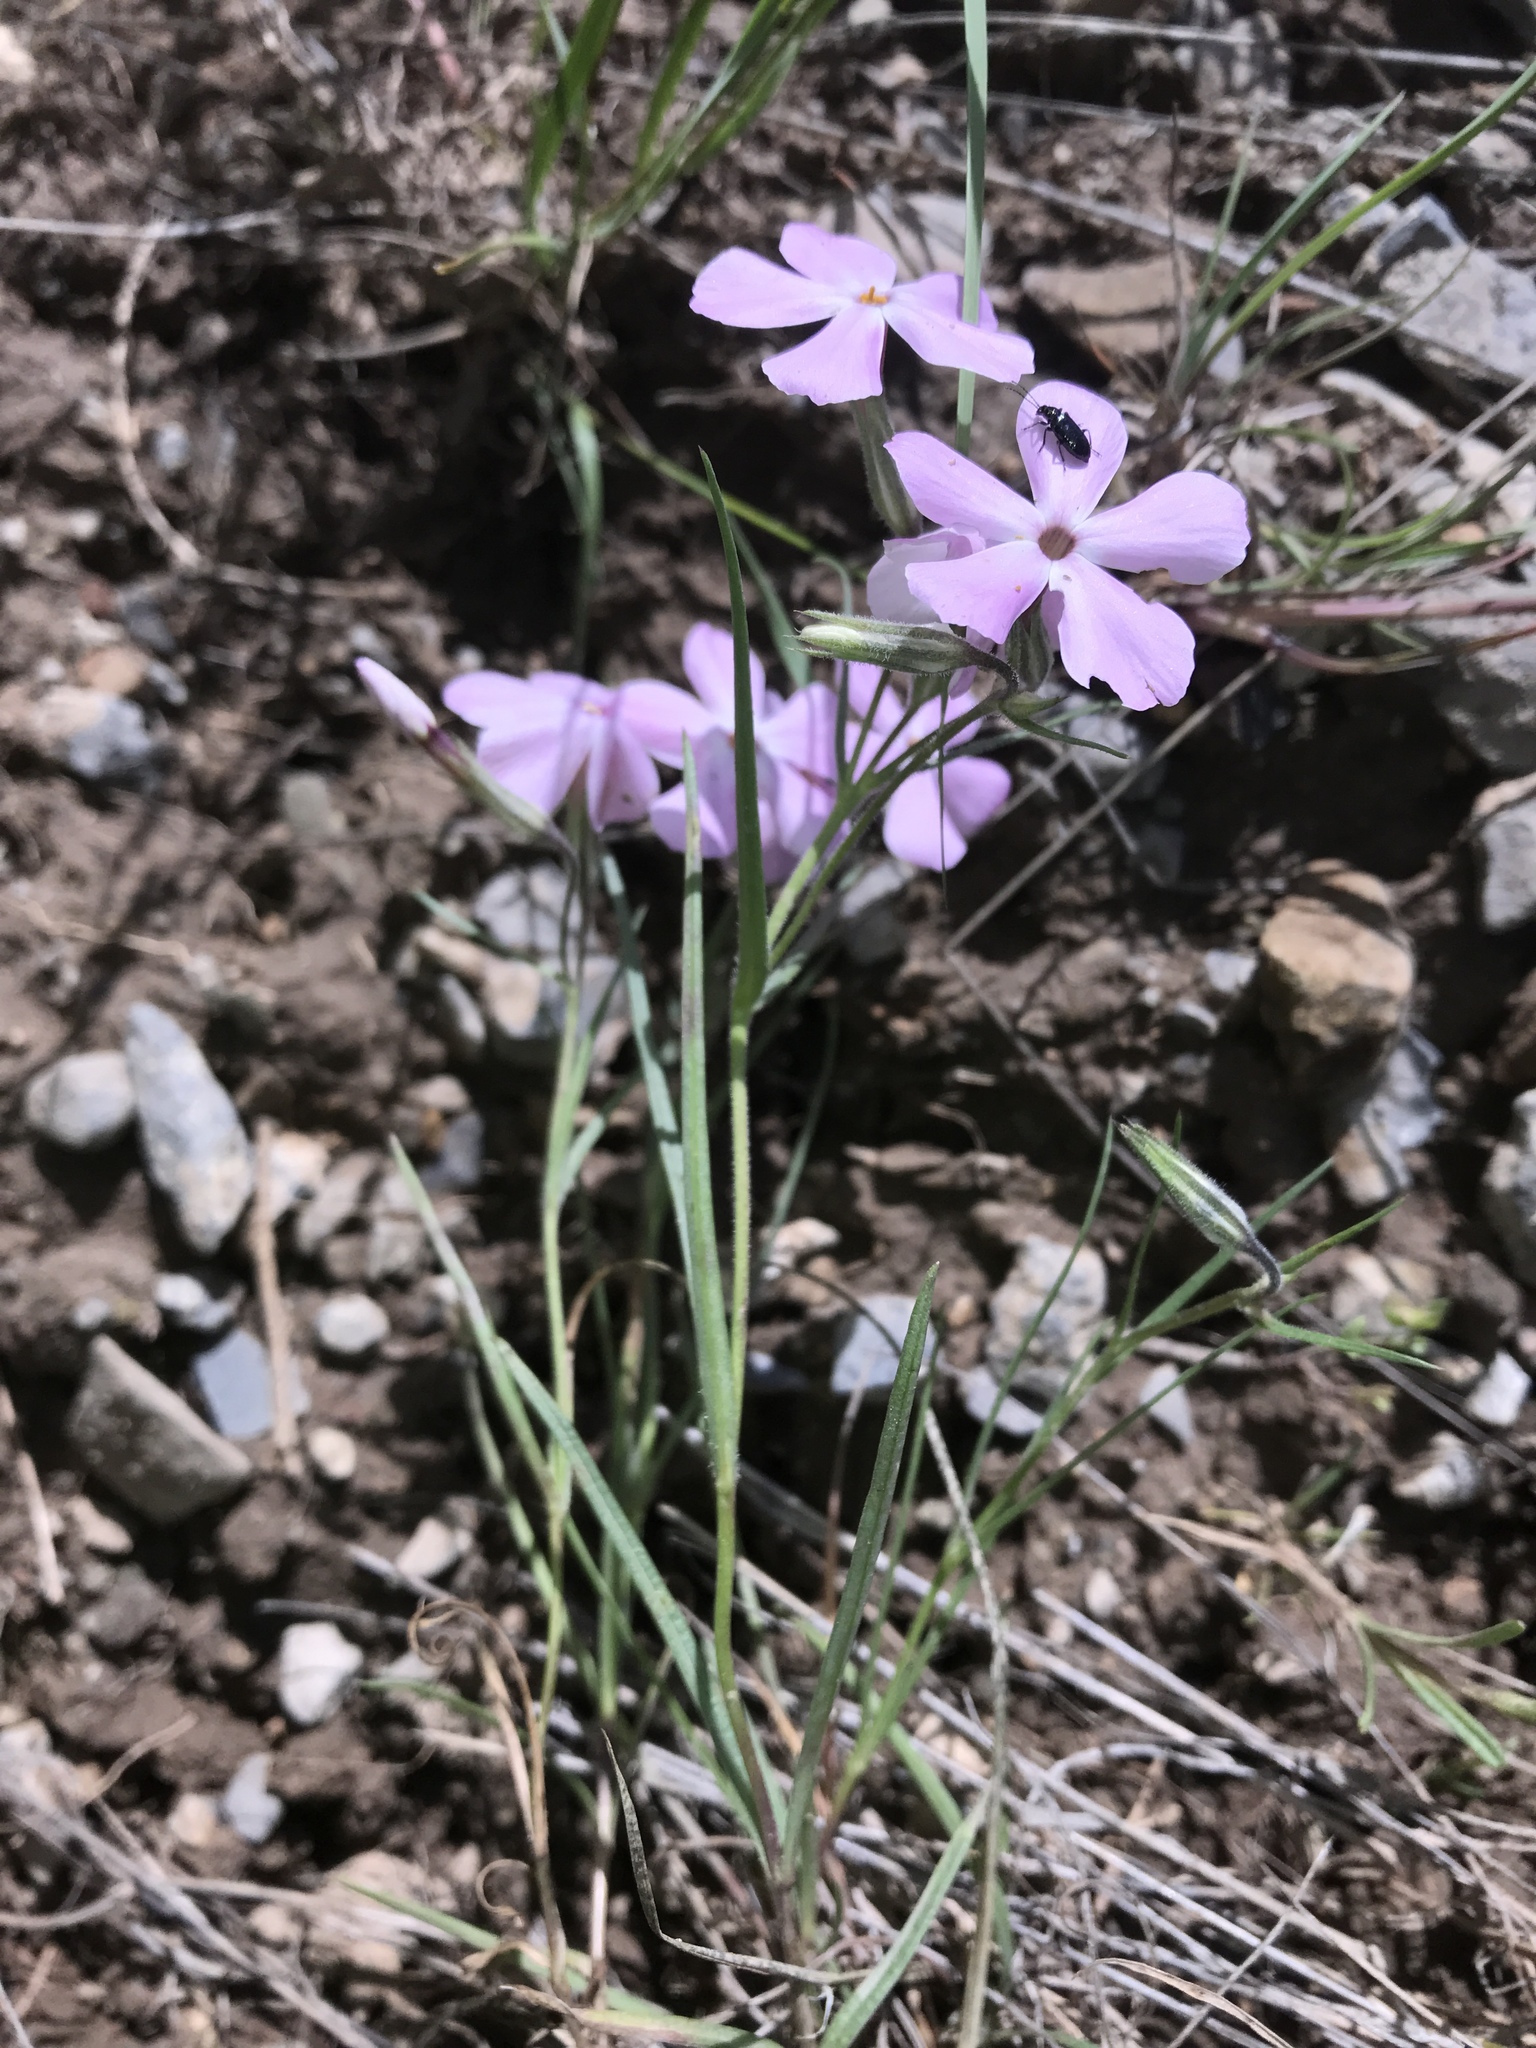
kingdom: Plantae
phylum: Tracheophyta
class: Magnoliopsida
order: Ericales
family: Polemoniaceae
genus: Phlox
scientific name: Phlox longifolia
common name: Longleaf phlox
